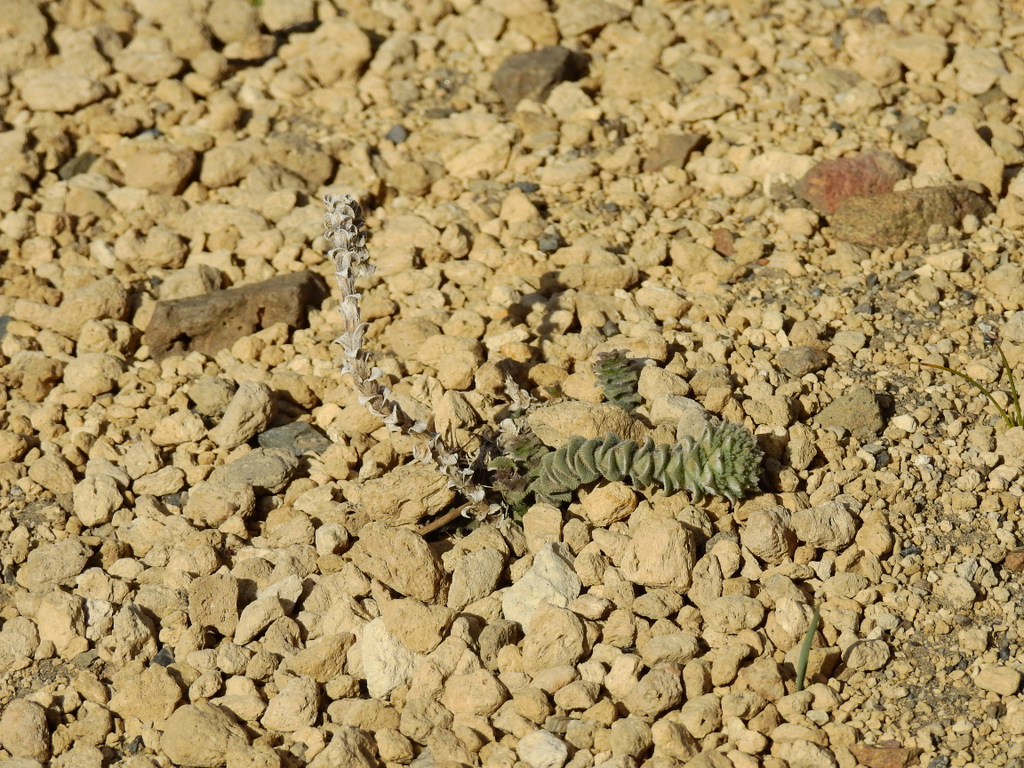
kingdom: Plantae
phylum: Tracheophyta
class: Magnoliopsida
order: Asterales
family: Asteraceae
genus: Nassauvia
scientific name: Nassauvia revoluta
